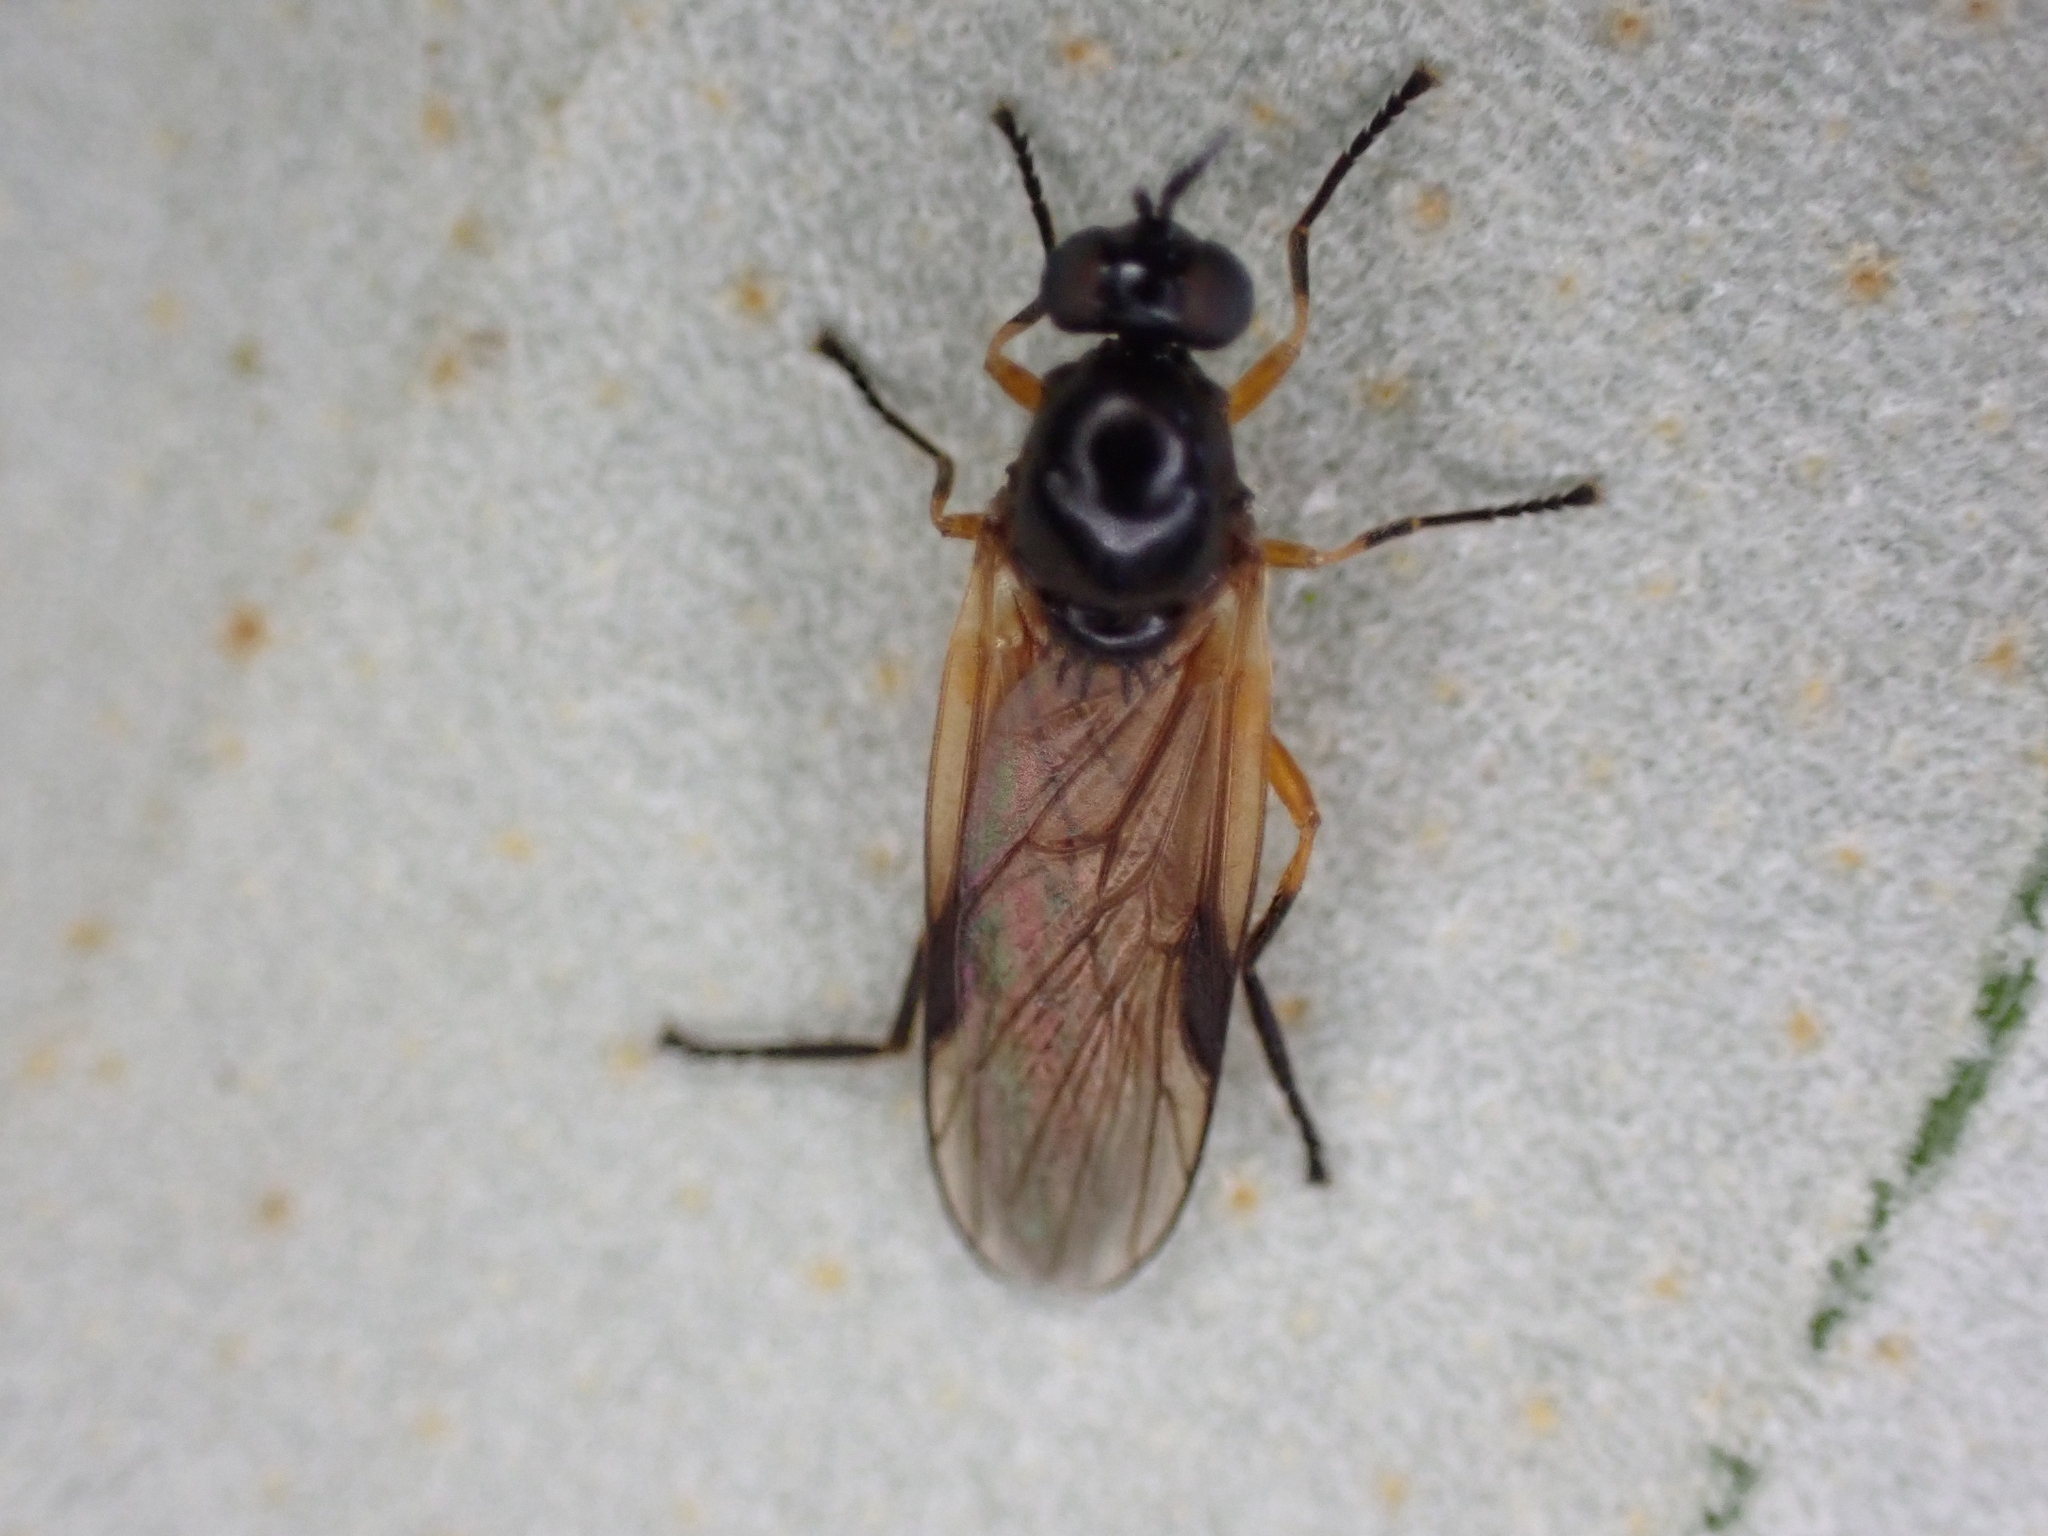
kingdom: Animalia
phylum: Arthropoda
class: Insecta
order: Diptera
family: Stratiomyidae
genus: Beris
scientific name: Beris vallata
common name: Common orange legionnaire
